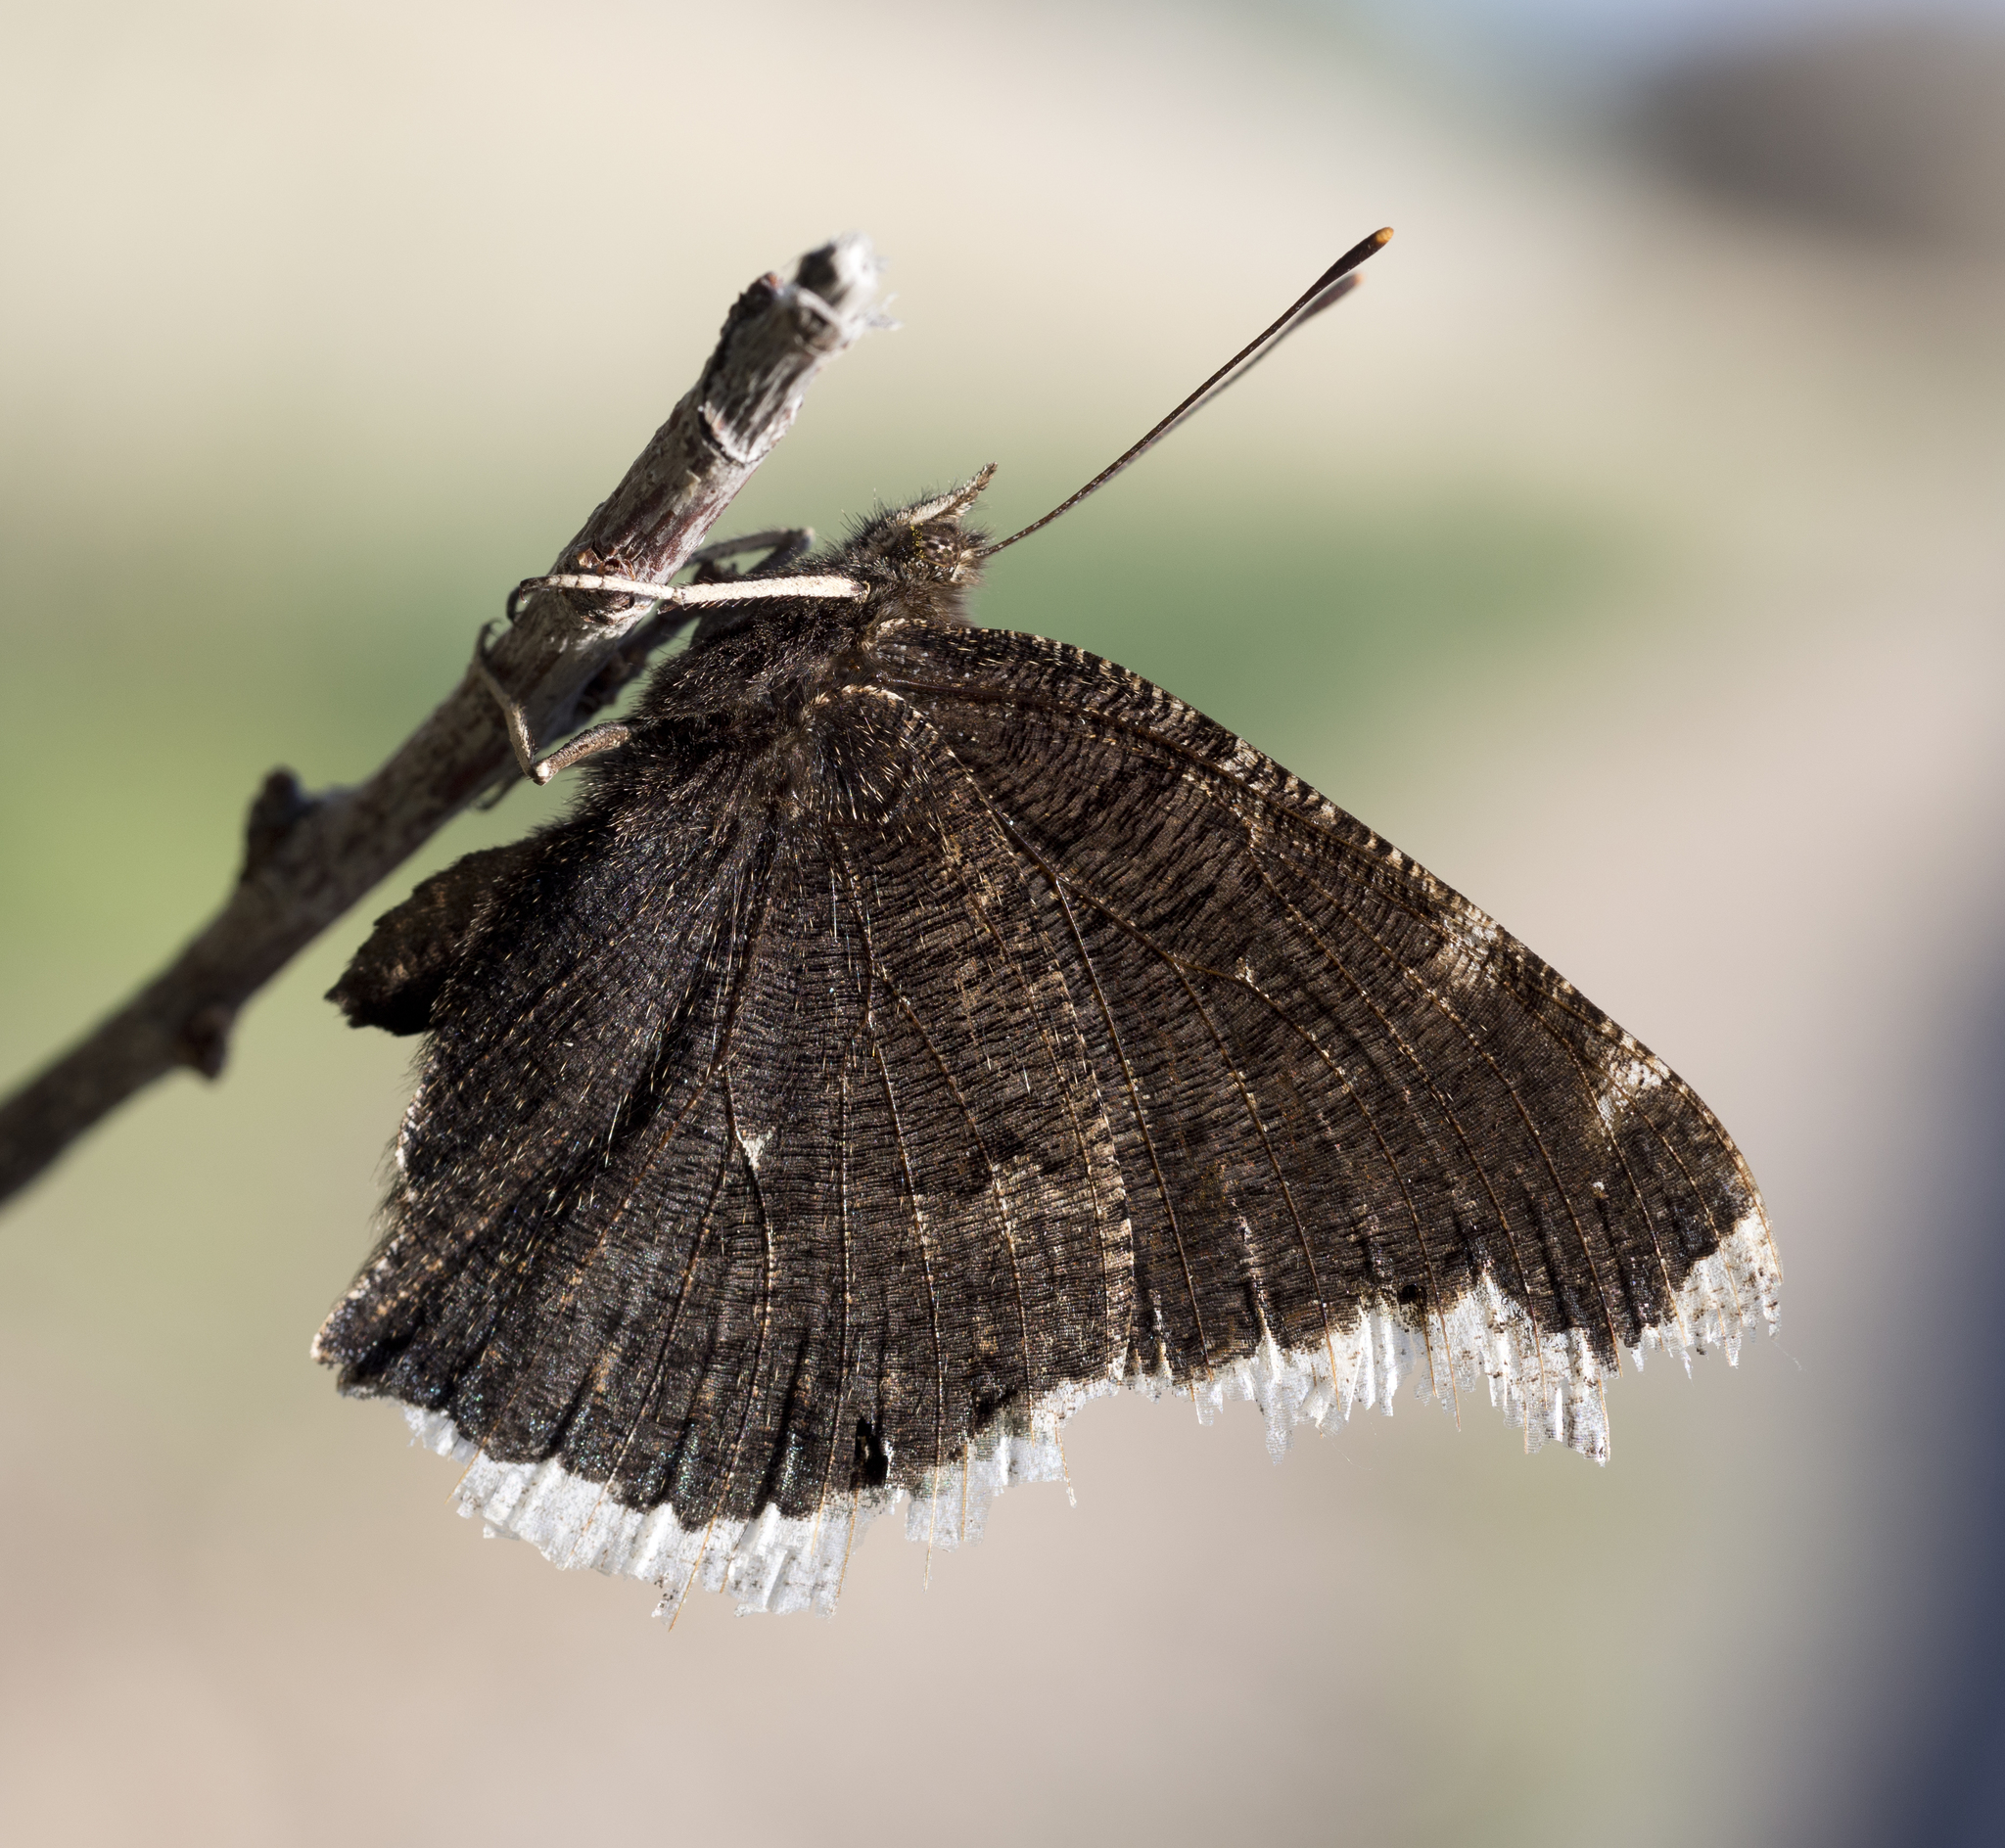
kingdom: Animalia
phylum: Arthropoda
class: Insecta
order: Lepidoptera
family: Nymphalidae
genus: Nymphalis
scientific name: Nymphalis antiopa
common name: Camberwell beauty
